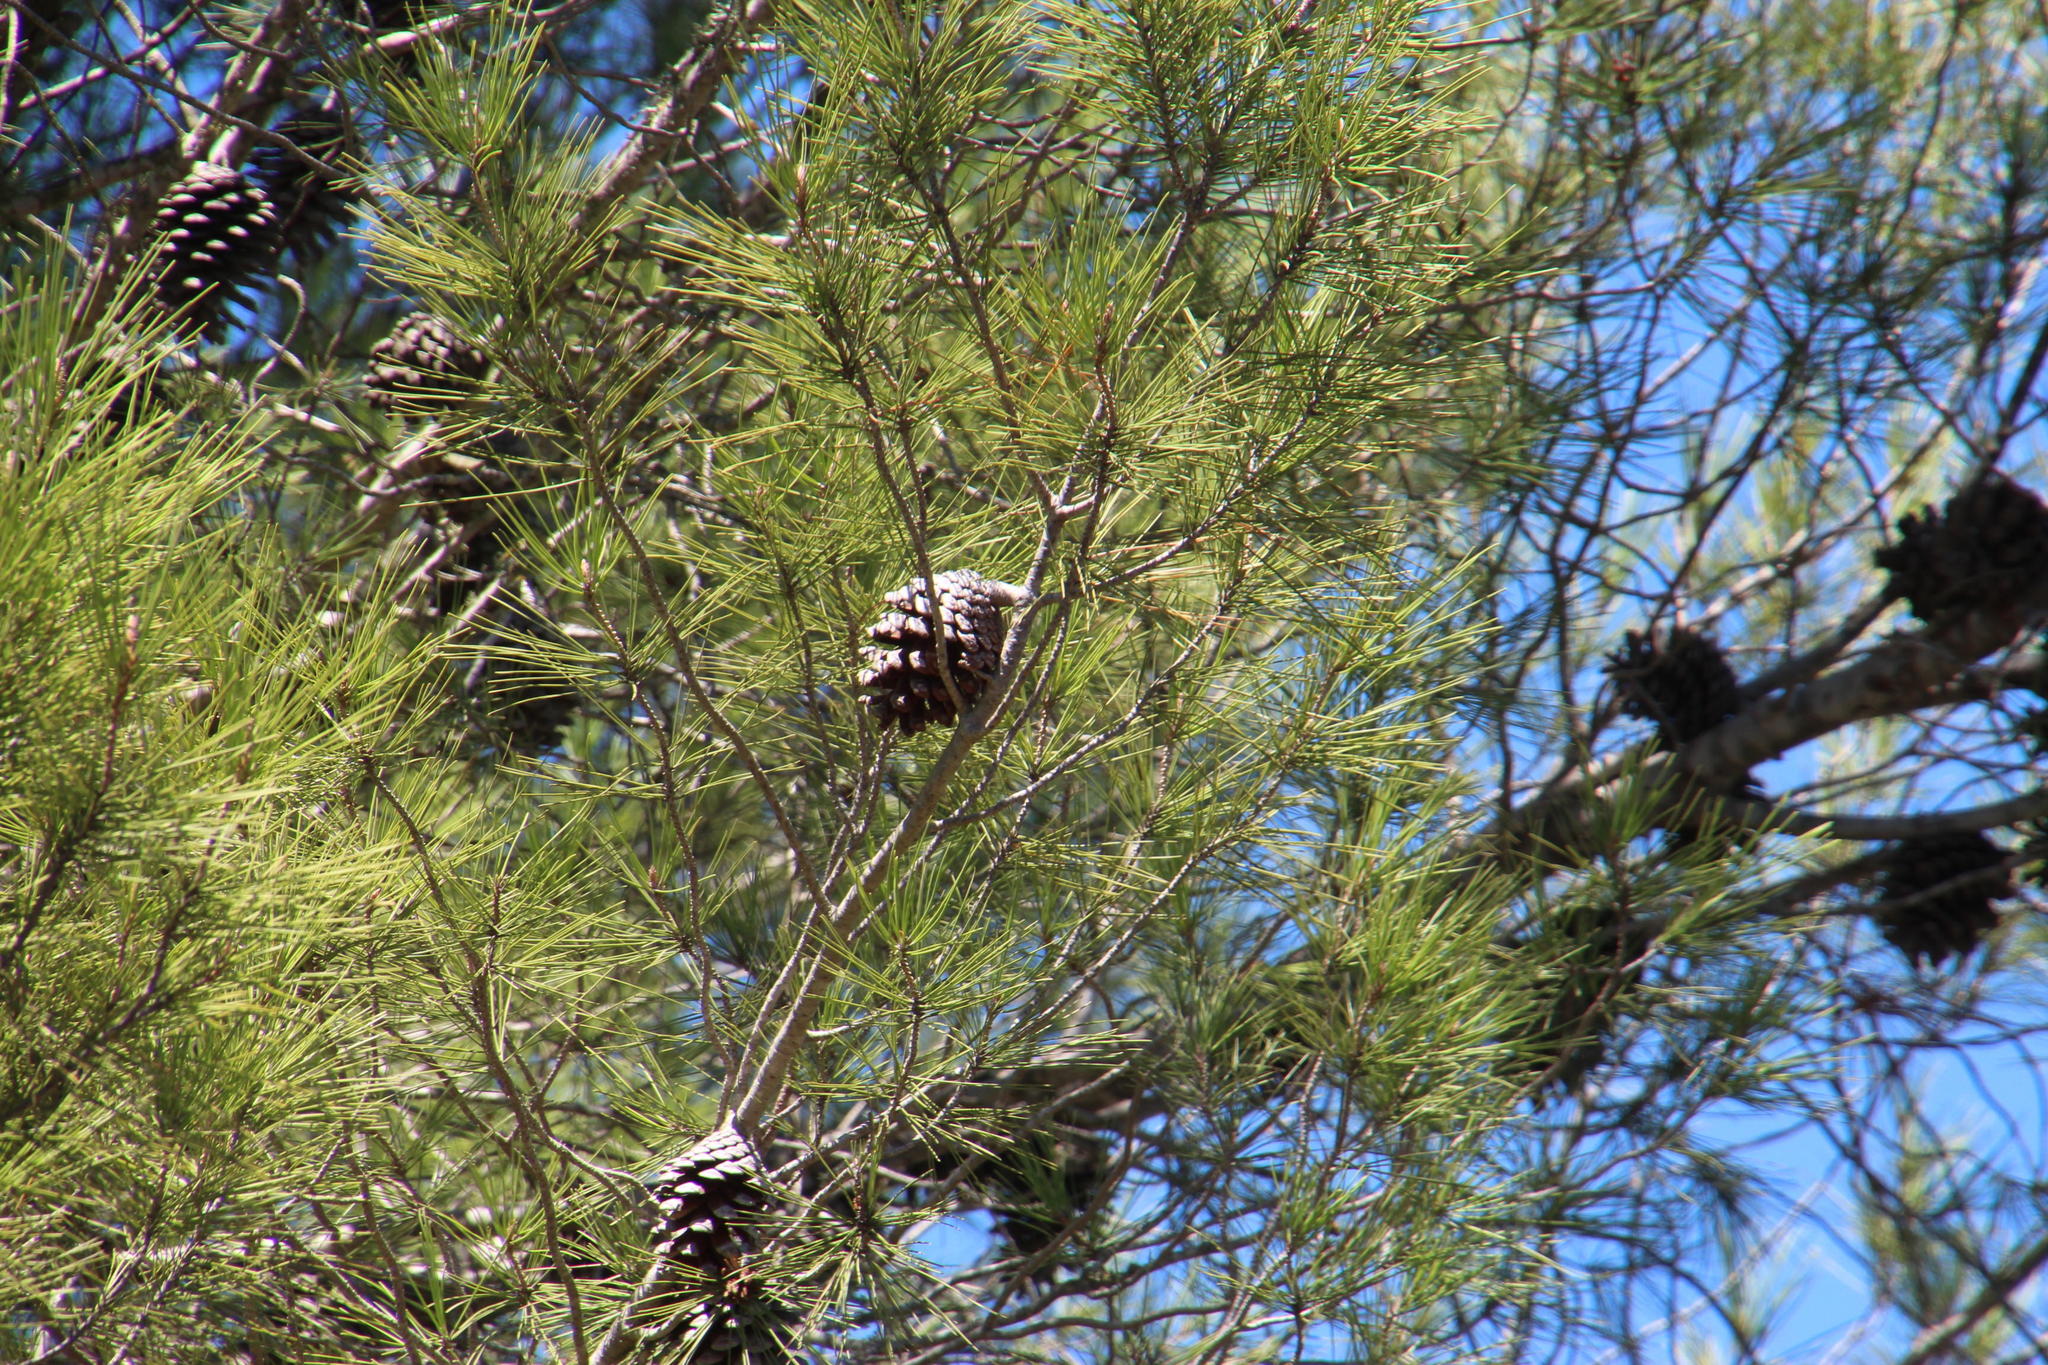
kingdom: Plantae
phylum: Tracheophyta
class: Pinopsida
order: Pinales
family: Pinaceae
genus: Pinus
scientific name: Pinus halepensis
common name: Aleppo pine
